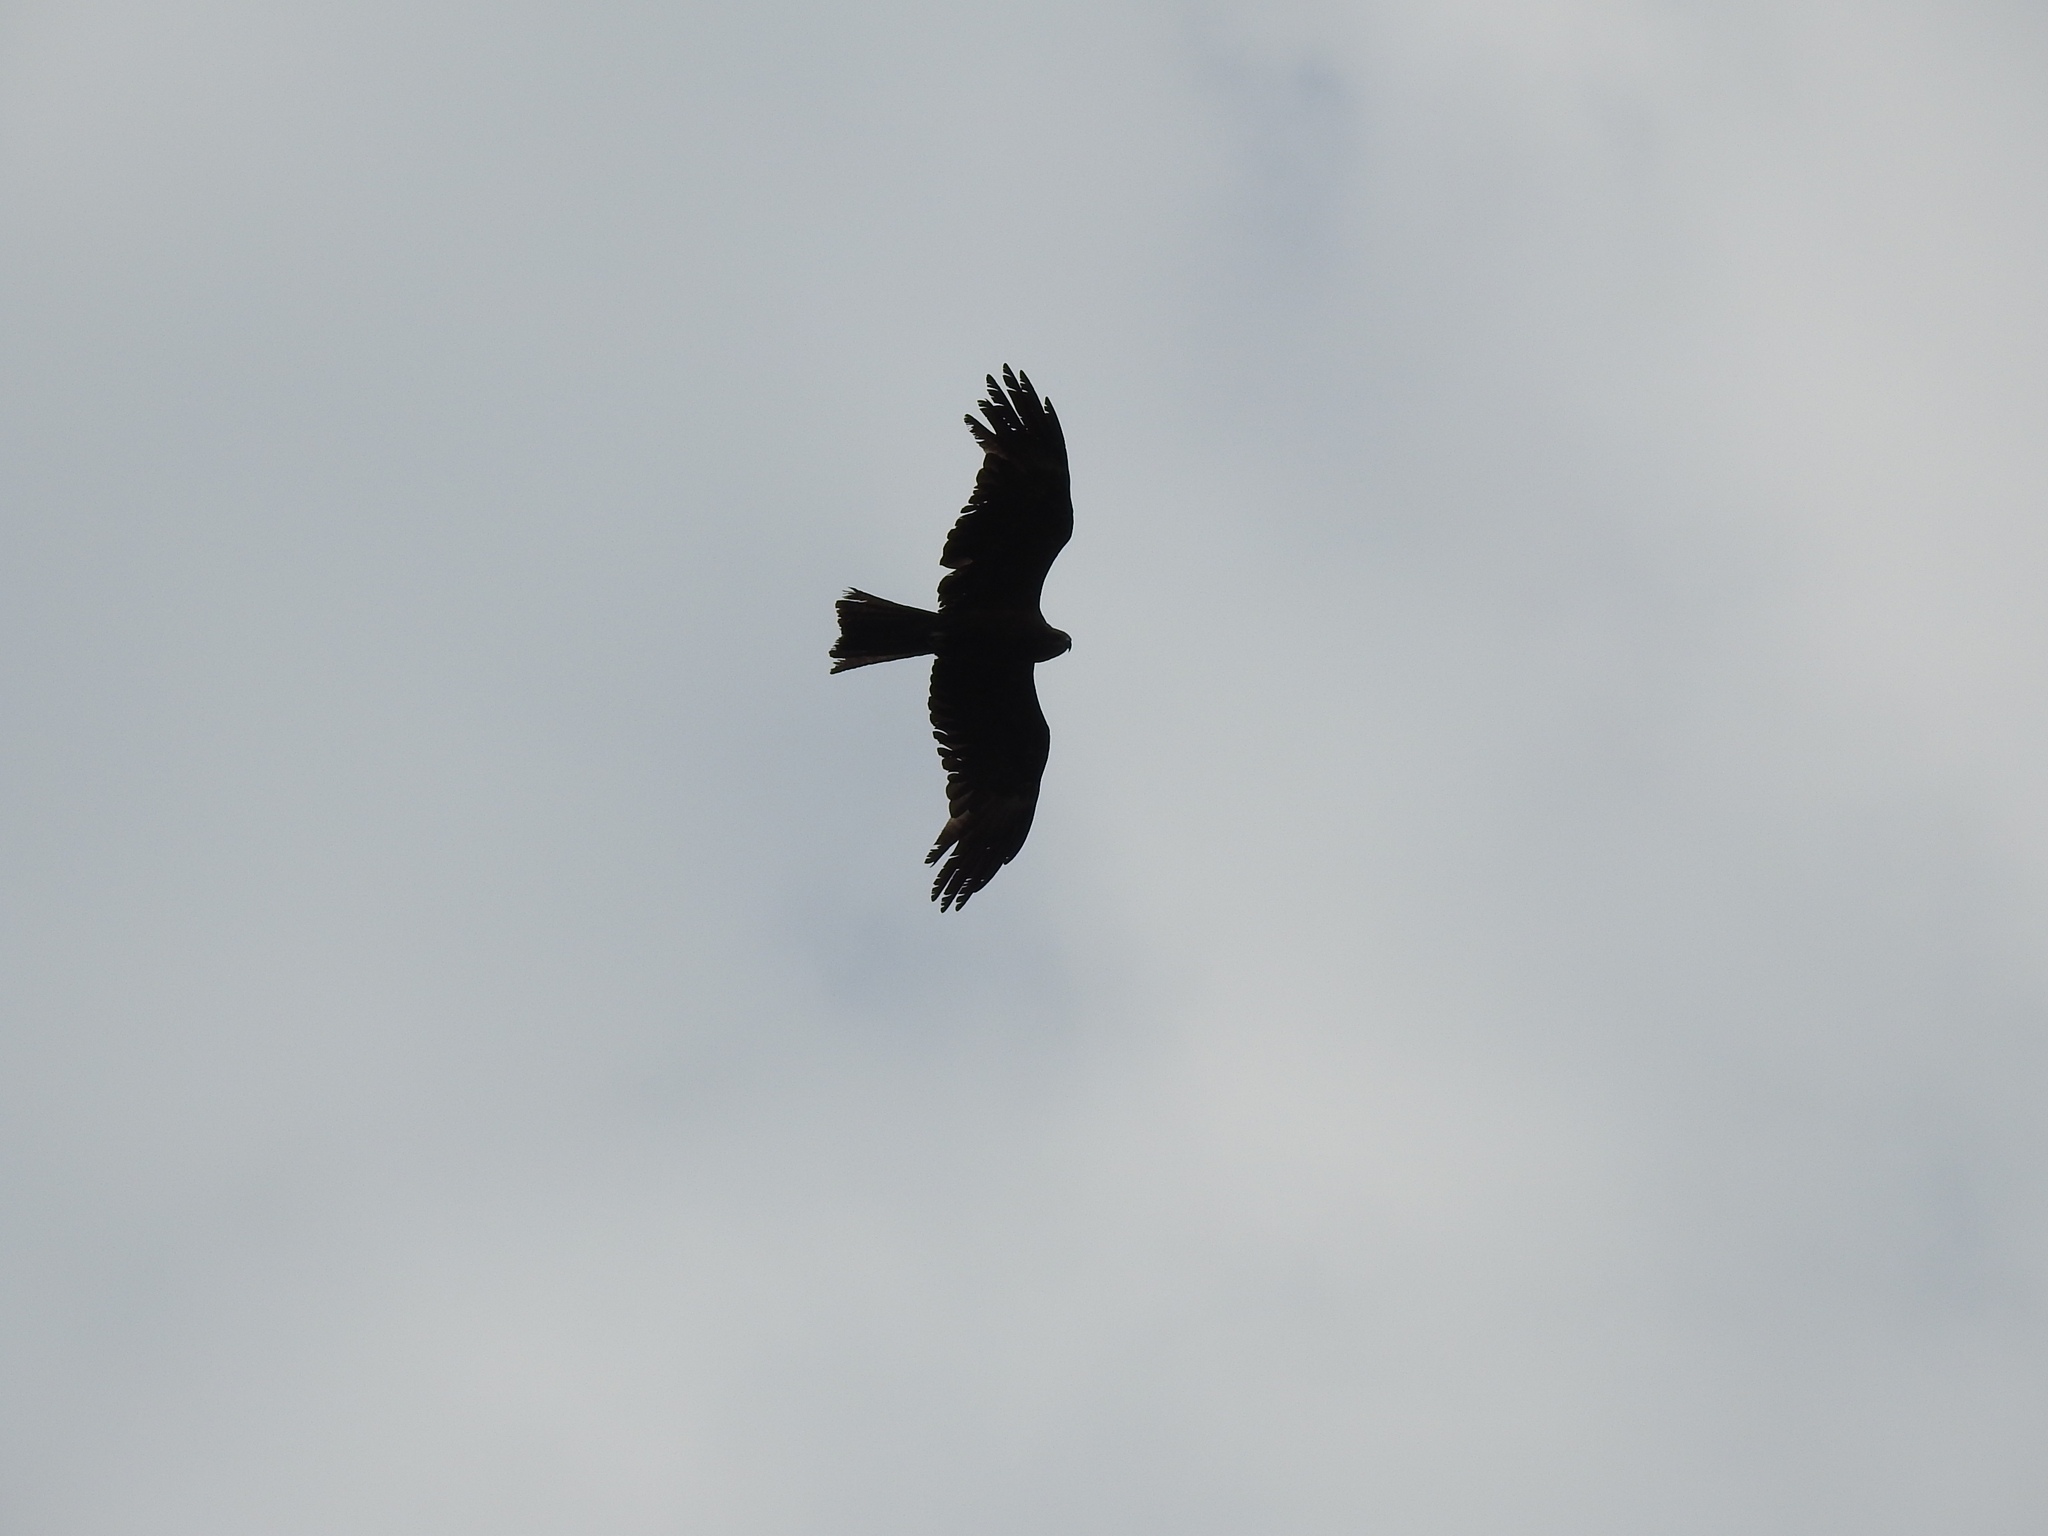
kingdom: Animalia
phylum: Chordata
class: Aves
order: Accipitriformes
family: Accipitridae
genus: Milvus
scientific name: Milvus migrans
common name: Black kite
